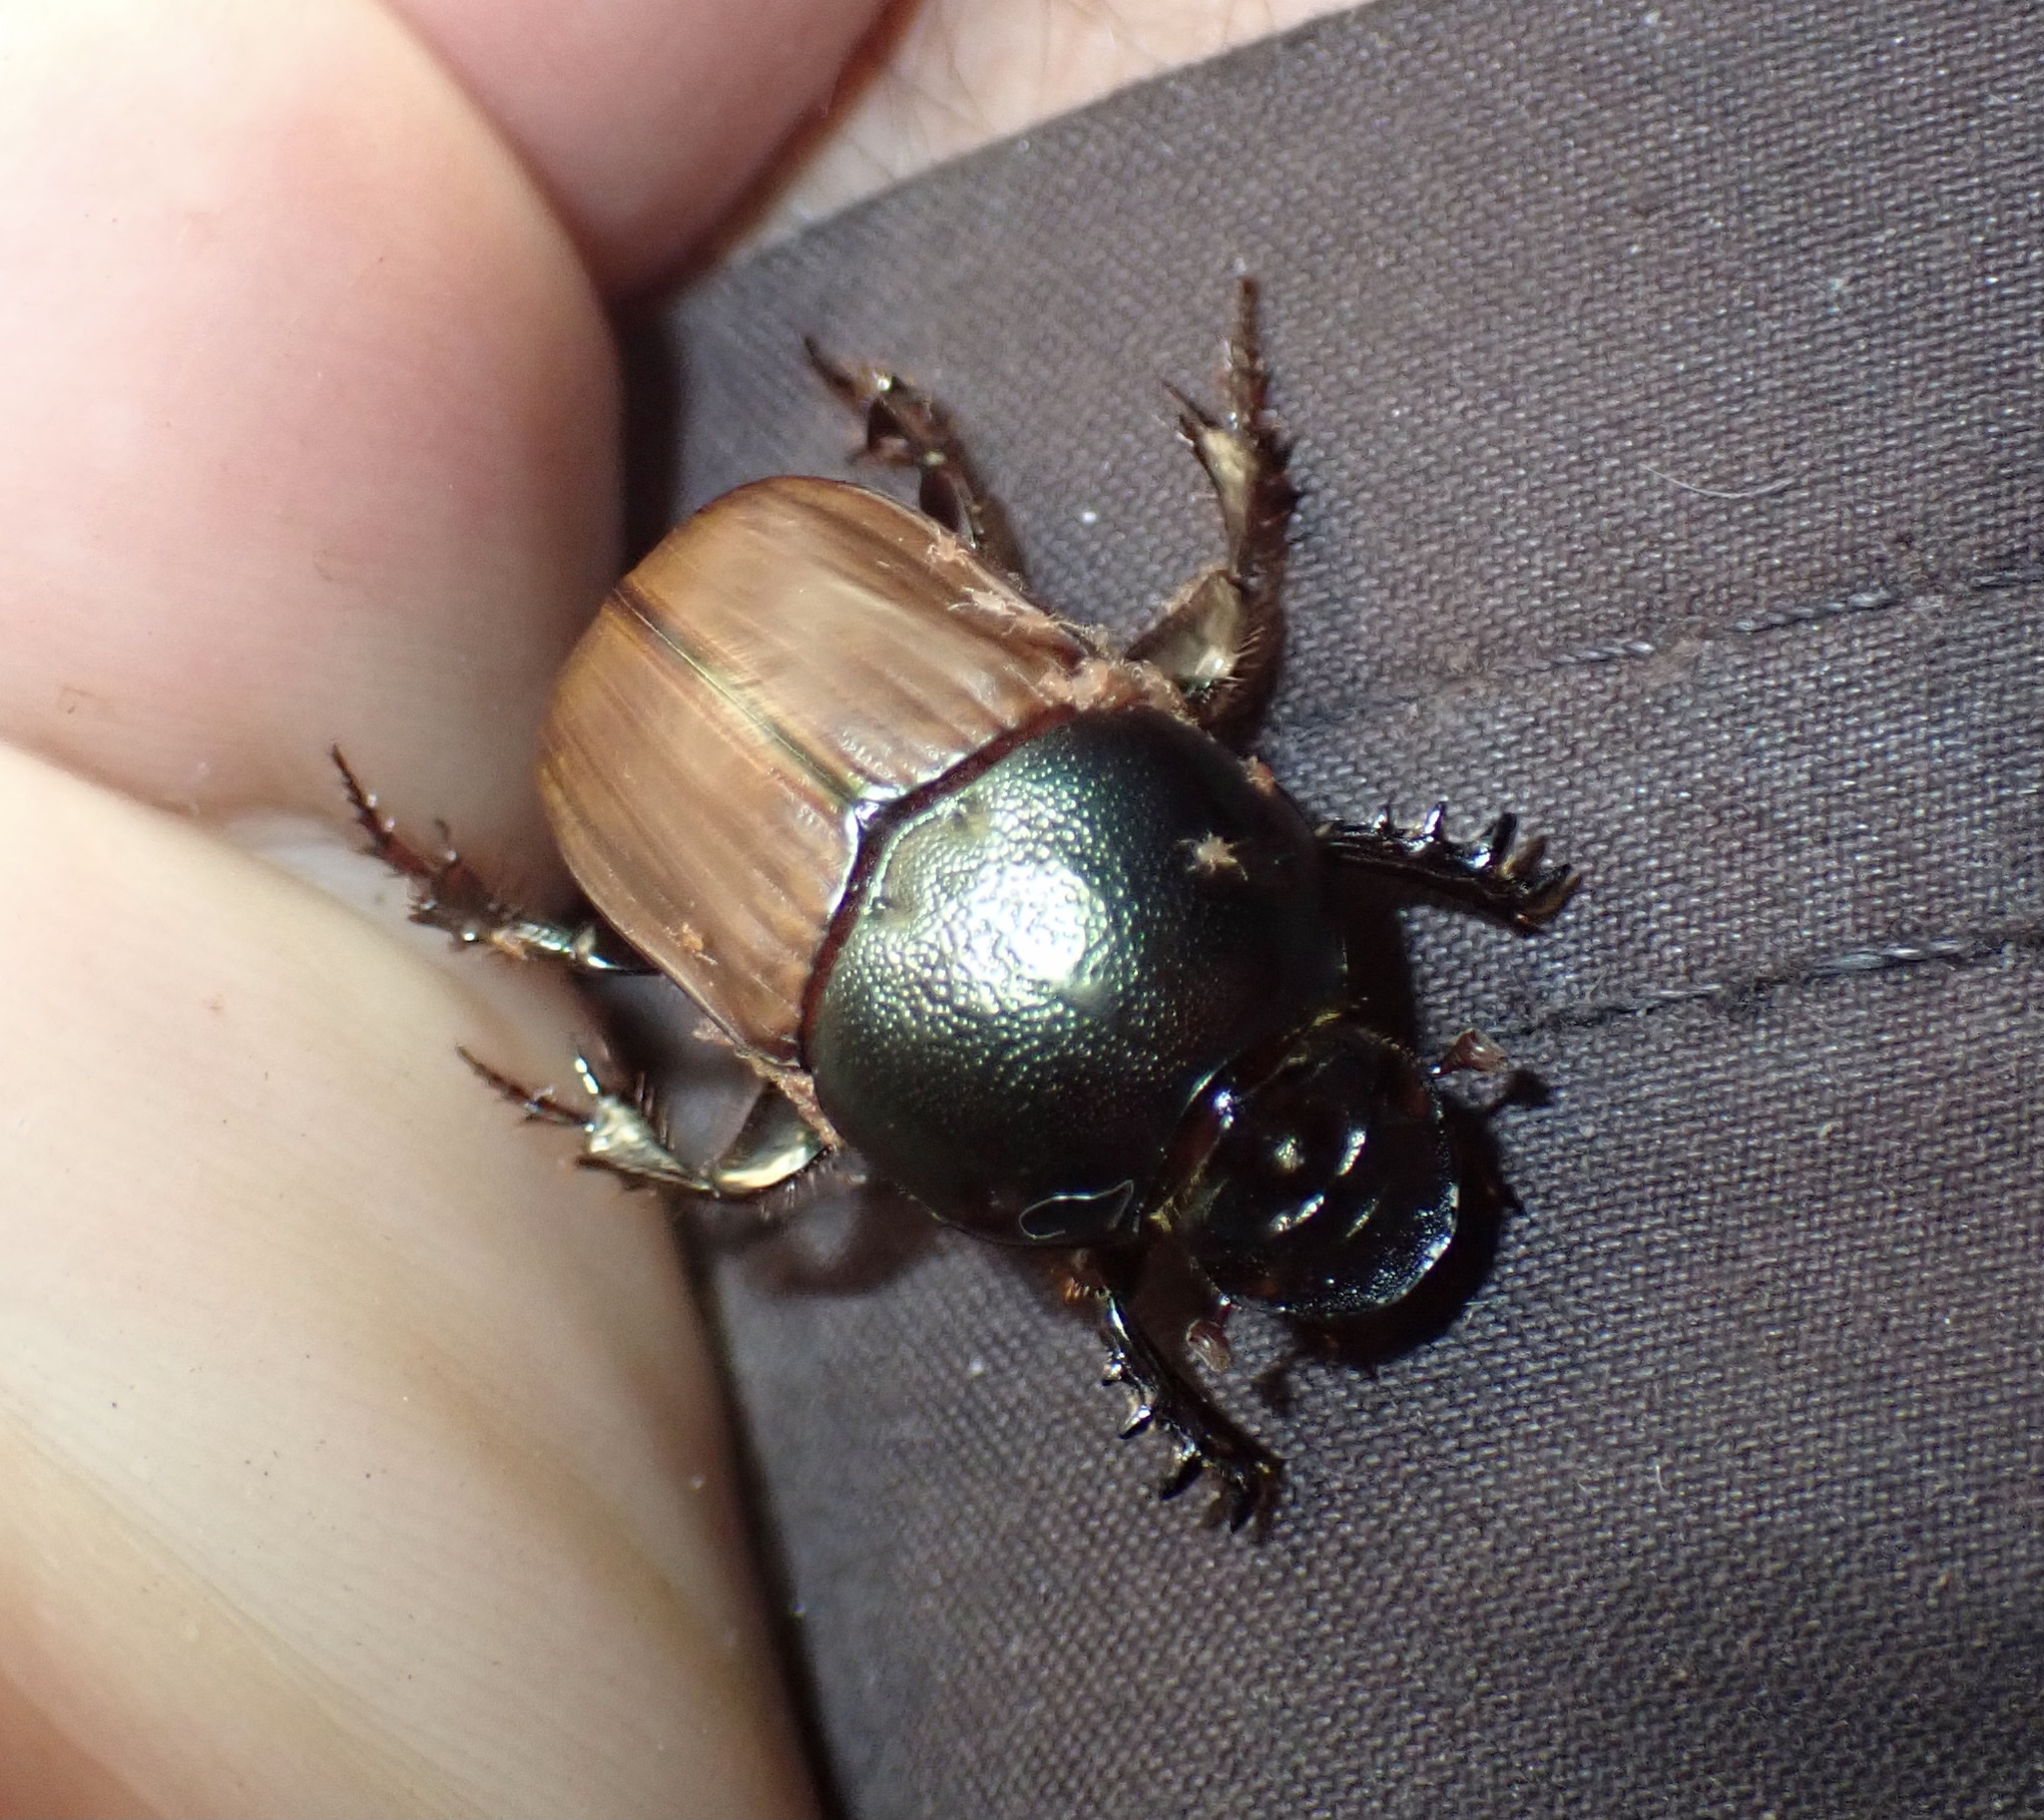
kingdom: Animalia
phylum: Arthropoda
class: Insecta
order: Coleoptera
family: Scarabaeidae
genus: Onitis
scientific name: Onitis alexis
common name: Alexis dung beetle
